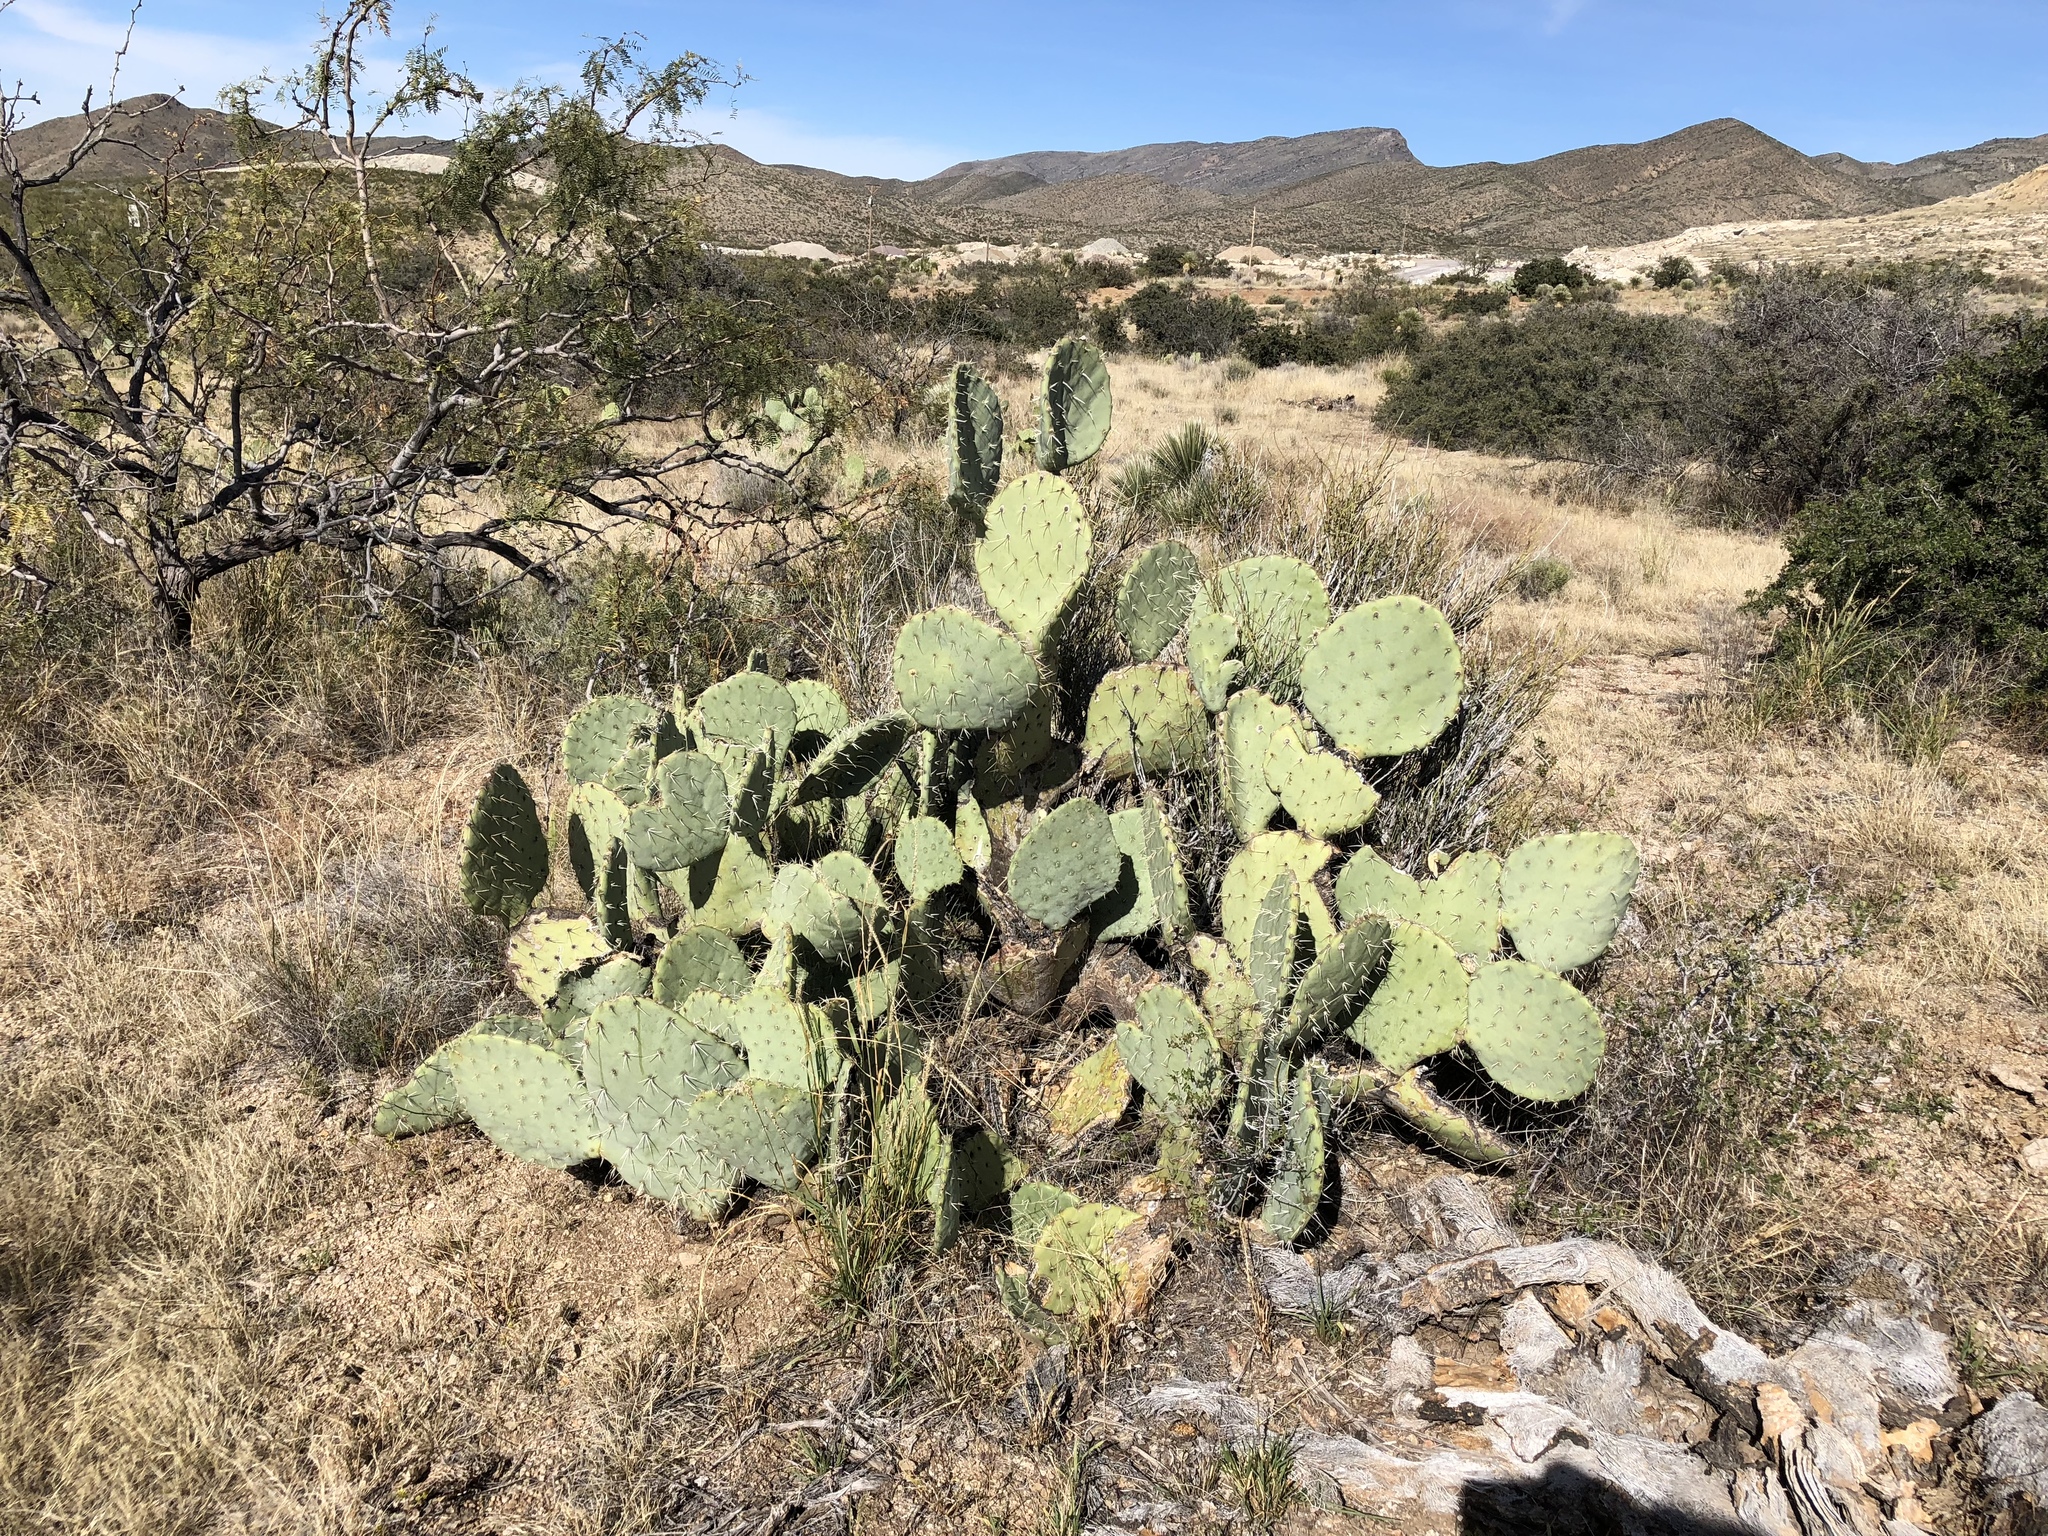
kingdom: Plantae
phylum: Tracheophyta
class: Magnoliopsida
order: Caryophyllales
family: Cactaceae
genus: Opuntia
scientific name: Opuntia engelmannii
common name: Cactus-apple
